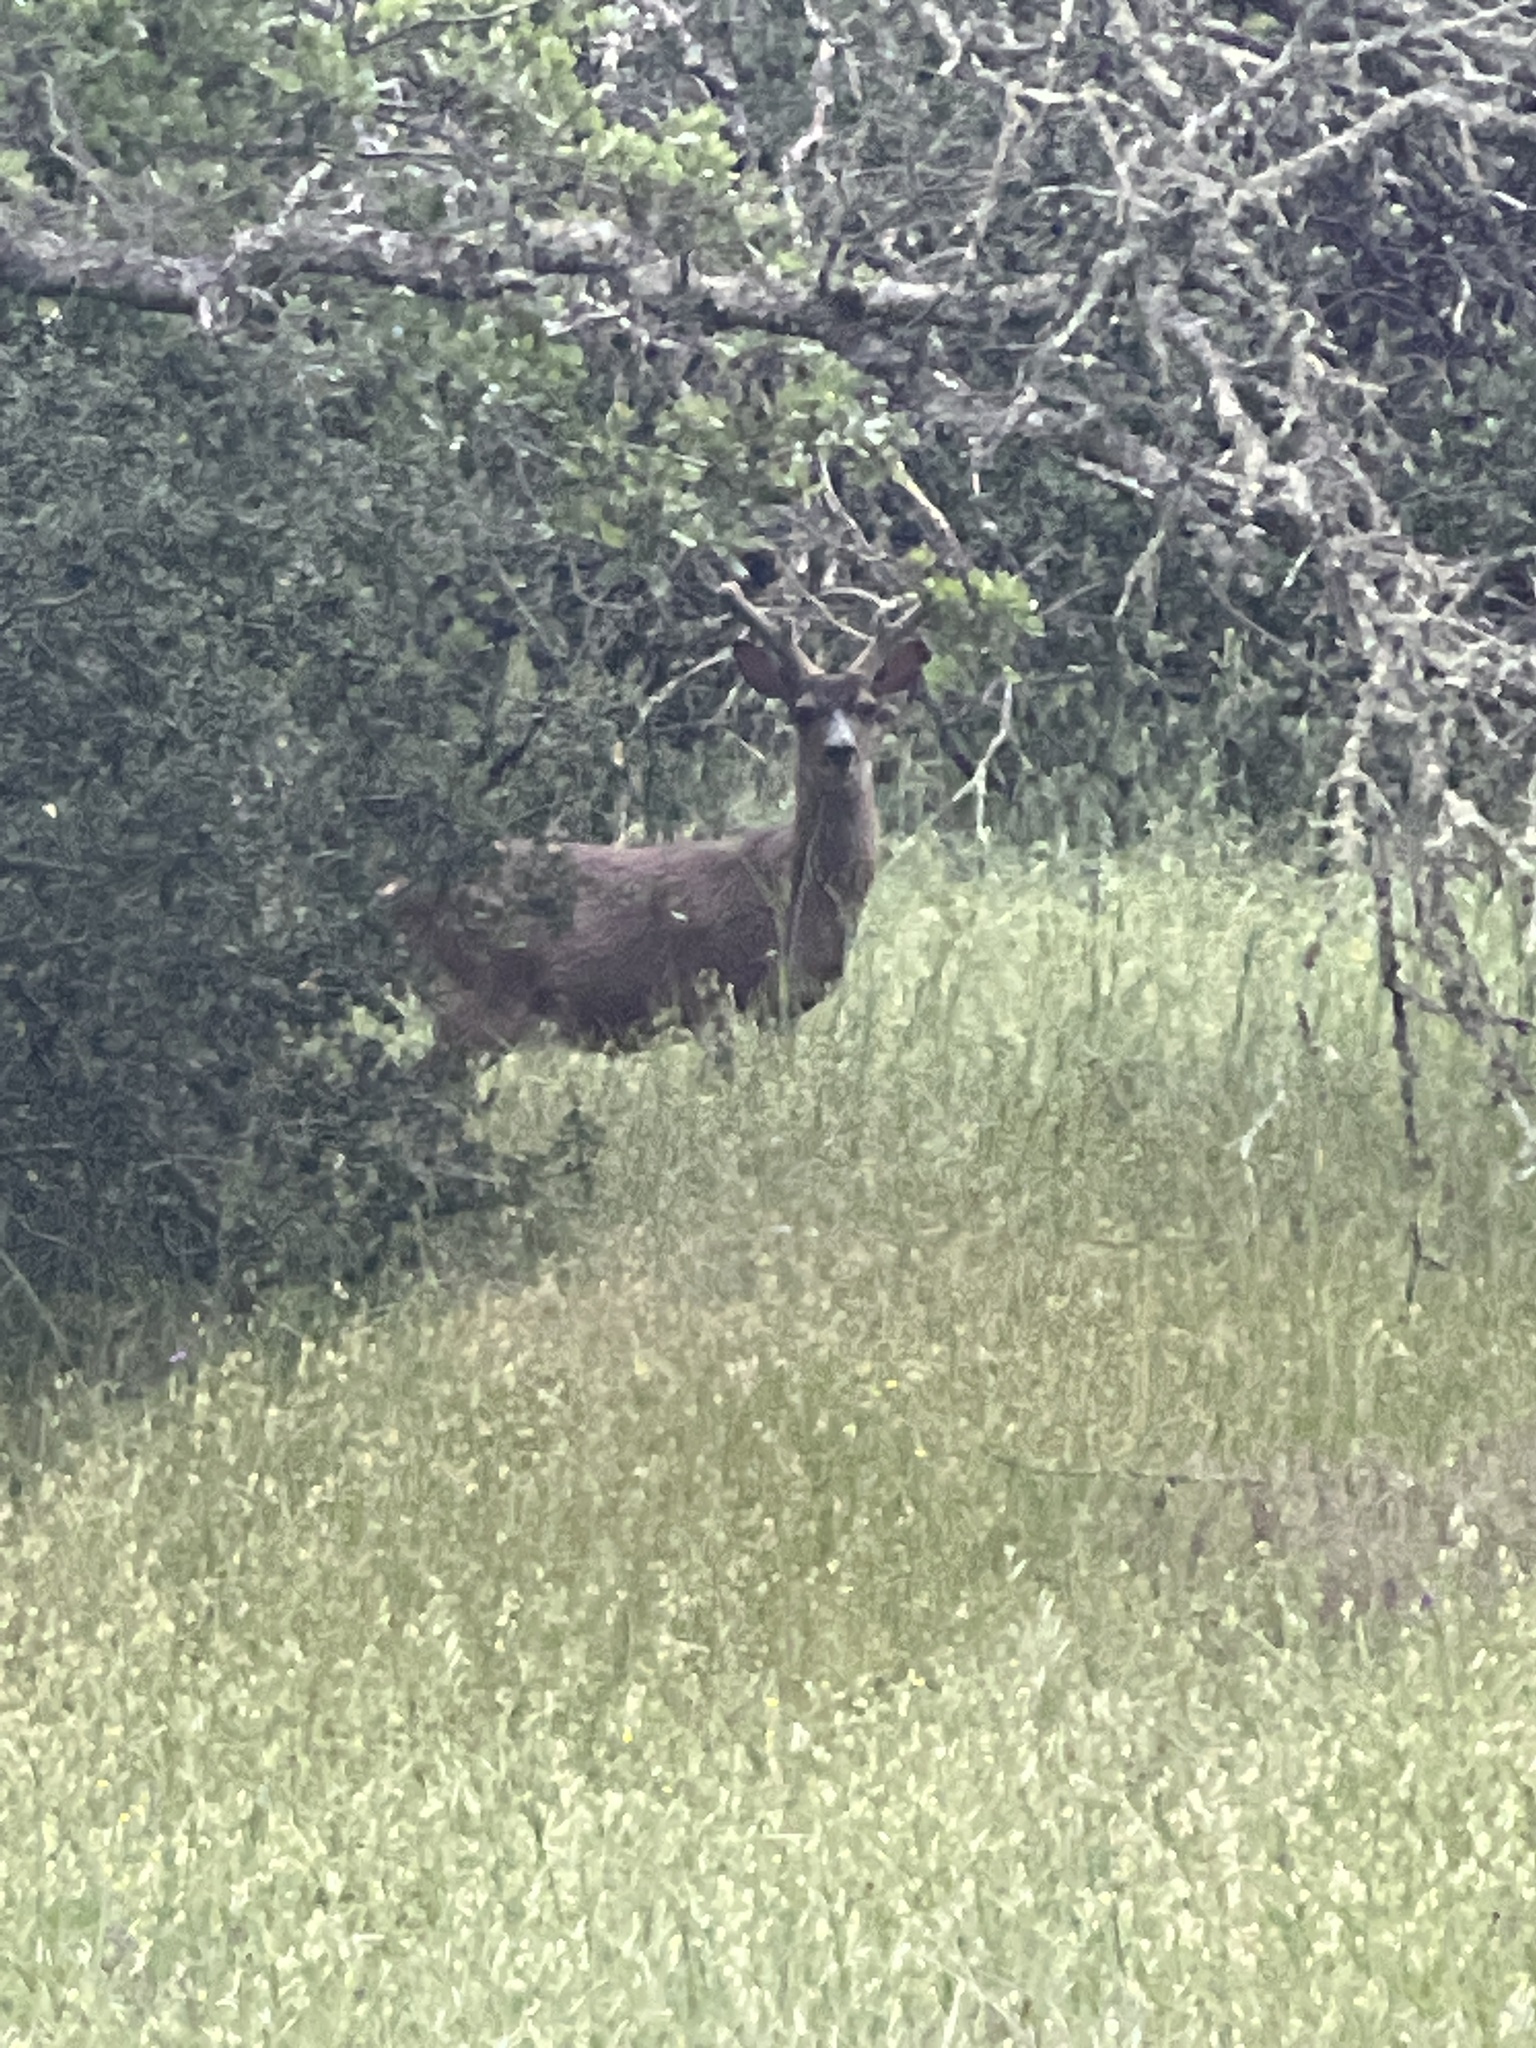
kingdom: Animalia
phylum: Chordata
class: Mammalia
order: Artiodactyla
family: Cervidae
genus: Odocoileus
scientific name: Odocoileus hemionus
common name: Mule deer
